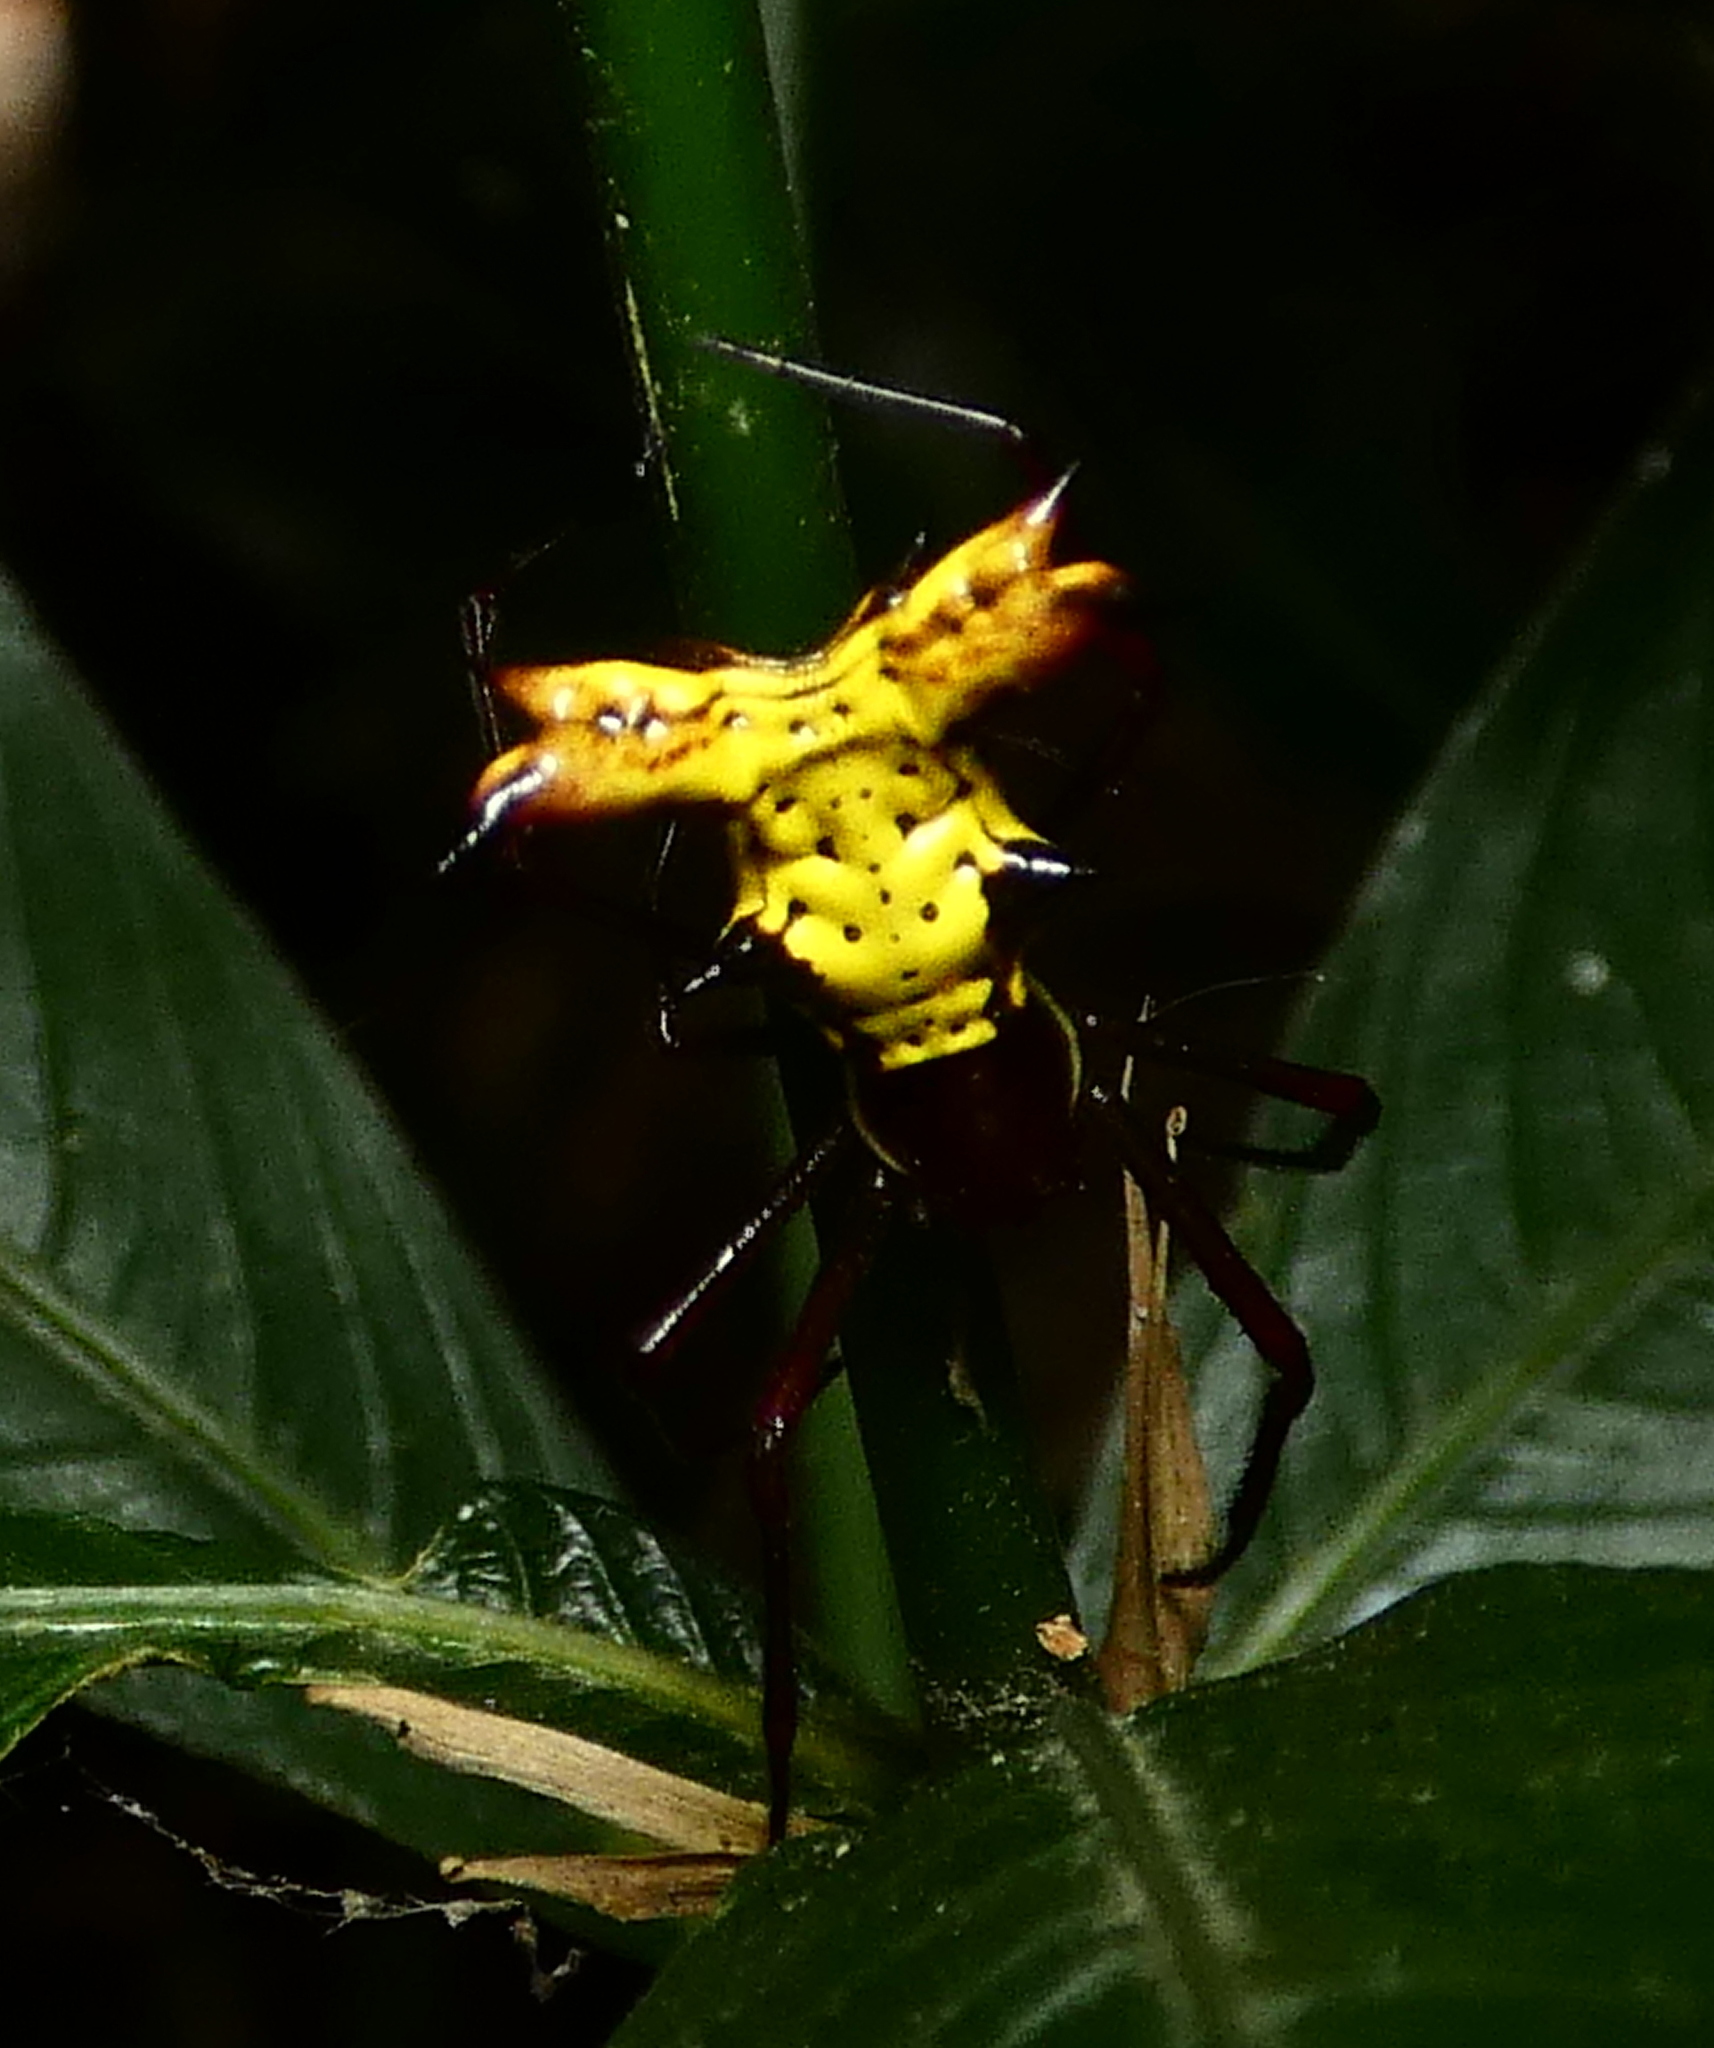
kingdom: Animalia
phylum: Arthropoda
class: Arachnida
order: Araneae
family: Araneidae
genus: Micrathena
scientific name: Micrathena fissispina
